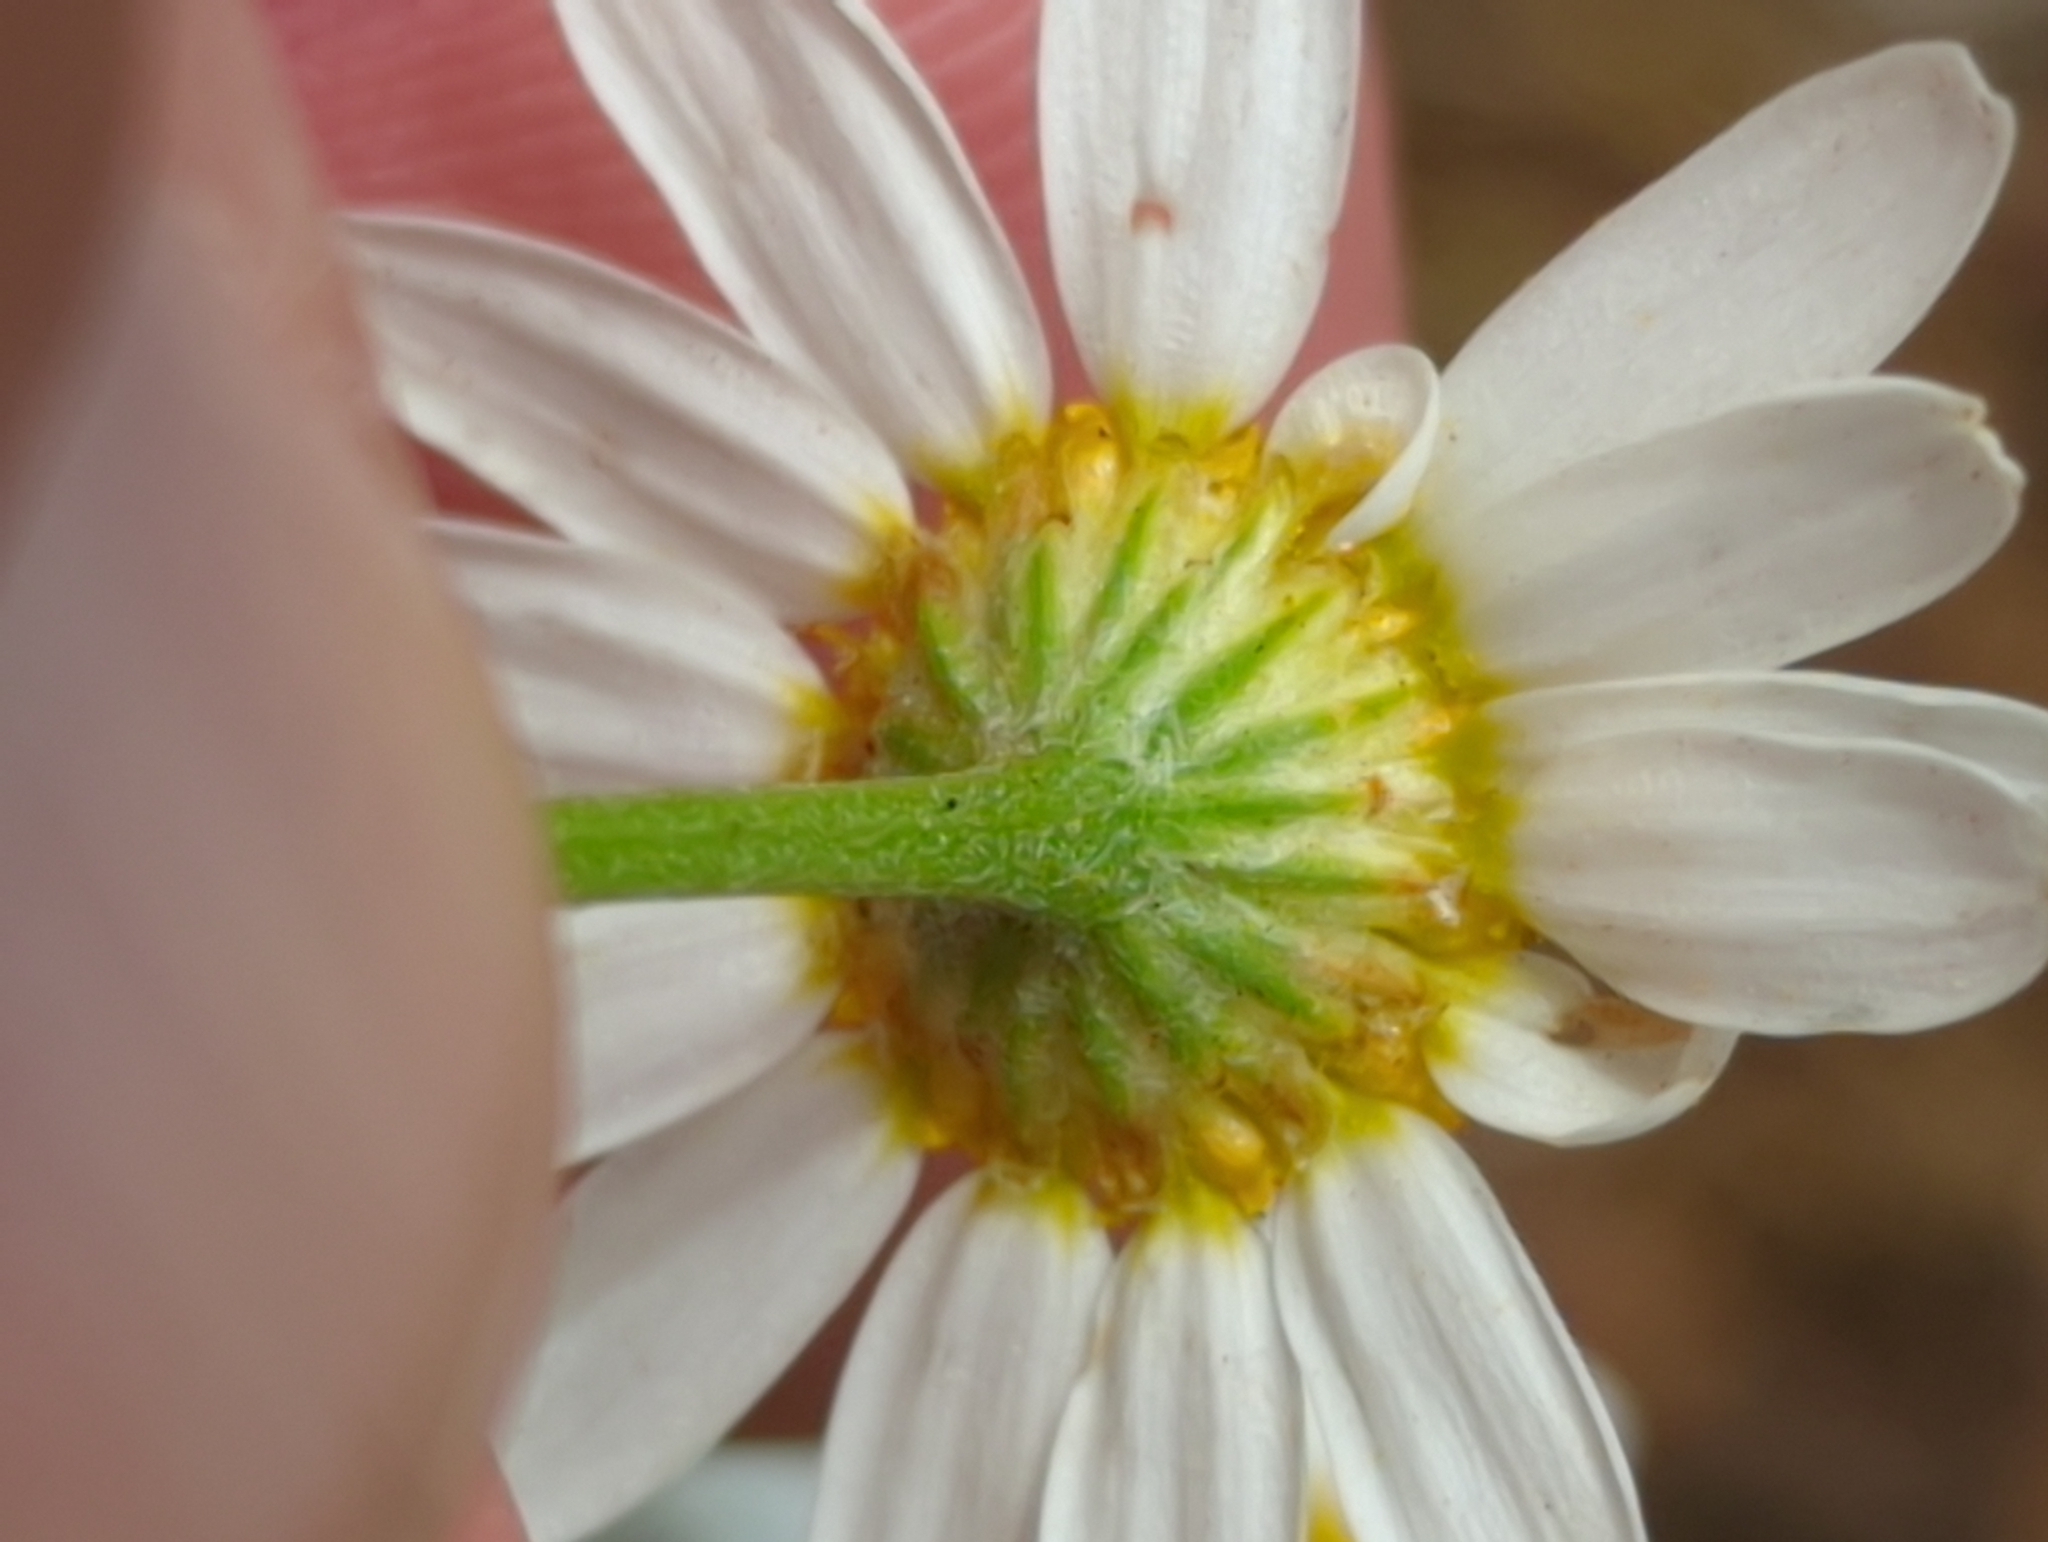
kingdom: Plantae
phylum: Tracheophyta
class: Magnoliopsida
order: Asterales
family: Asteraceae
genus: Anthemis
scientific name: Anthemis cotula
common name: Stinking chamomile
